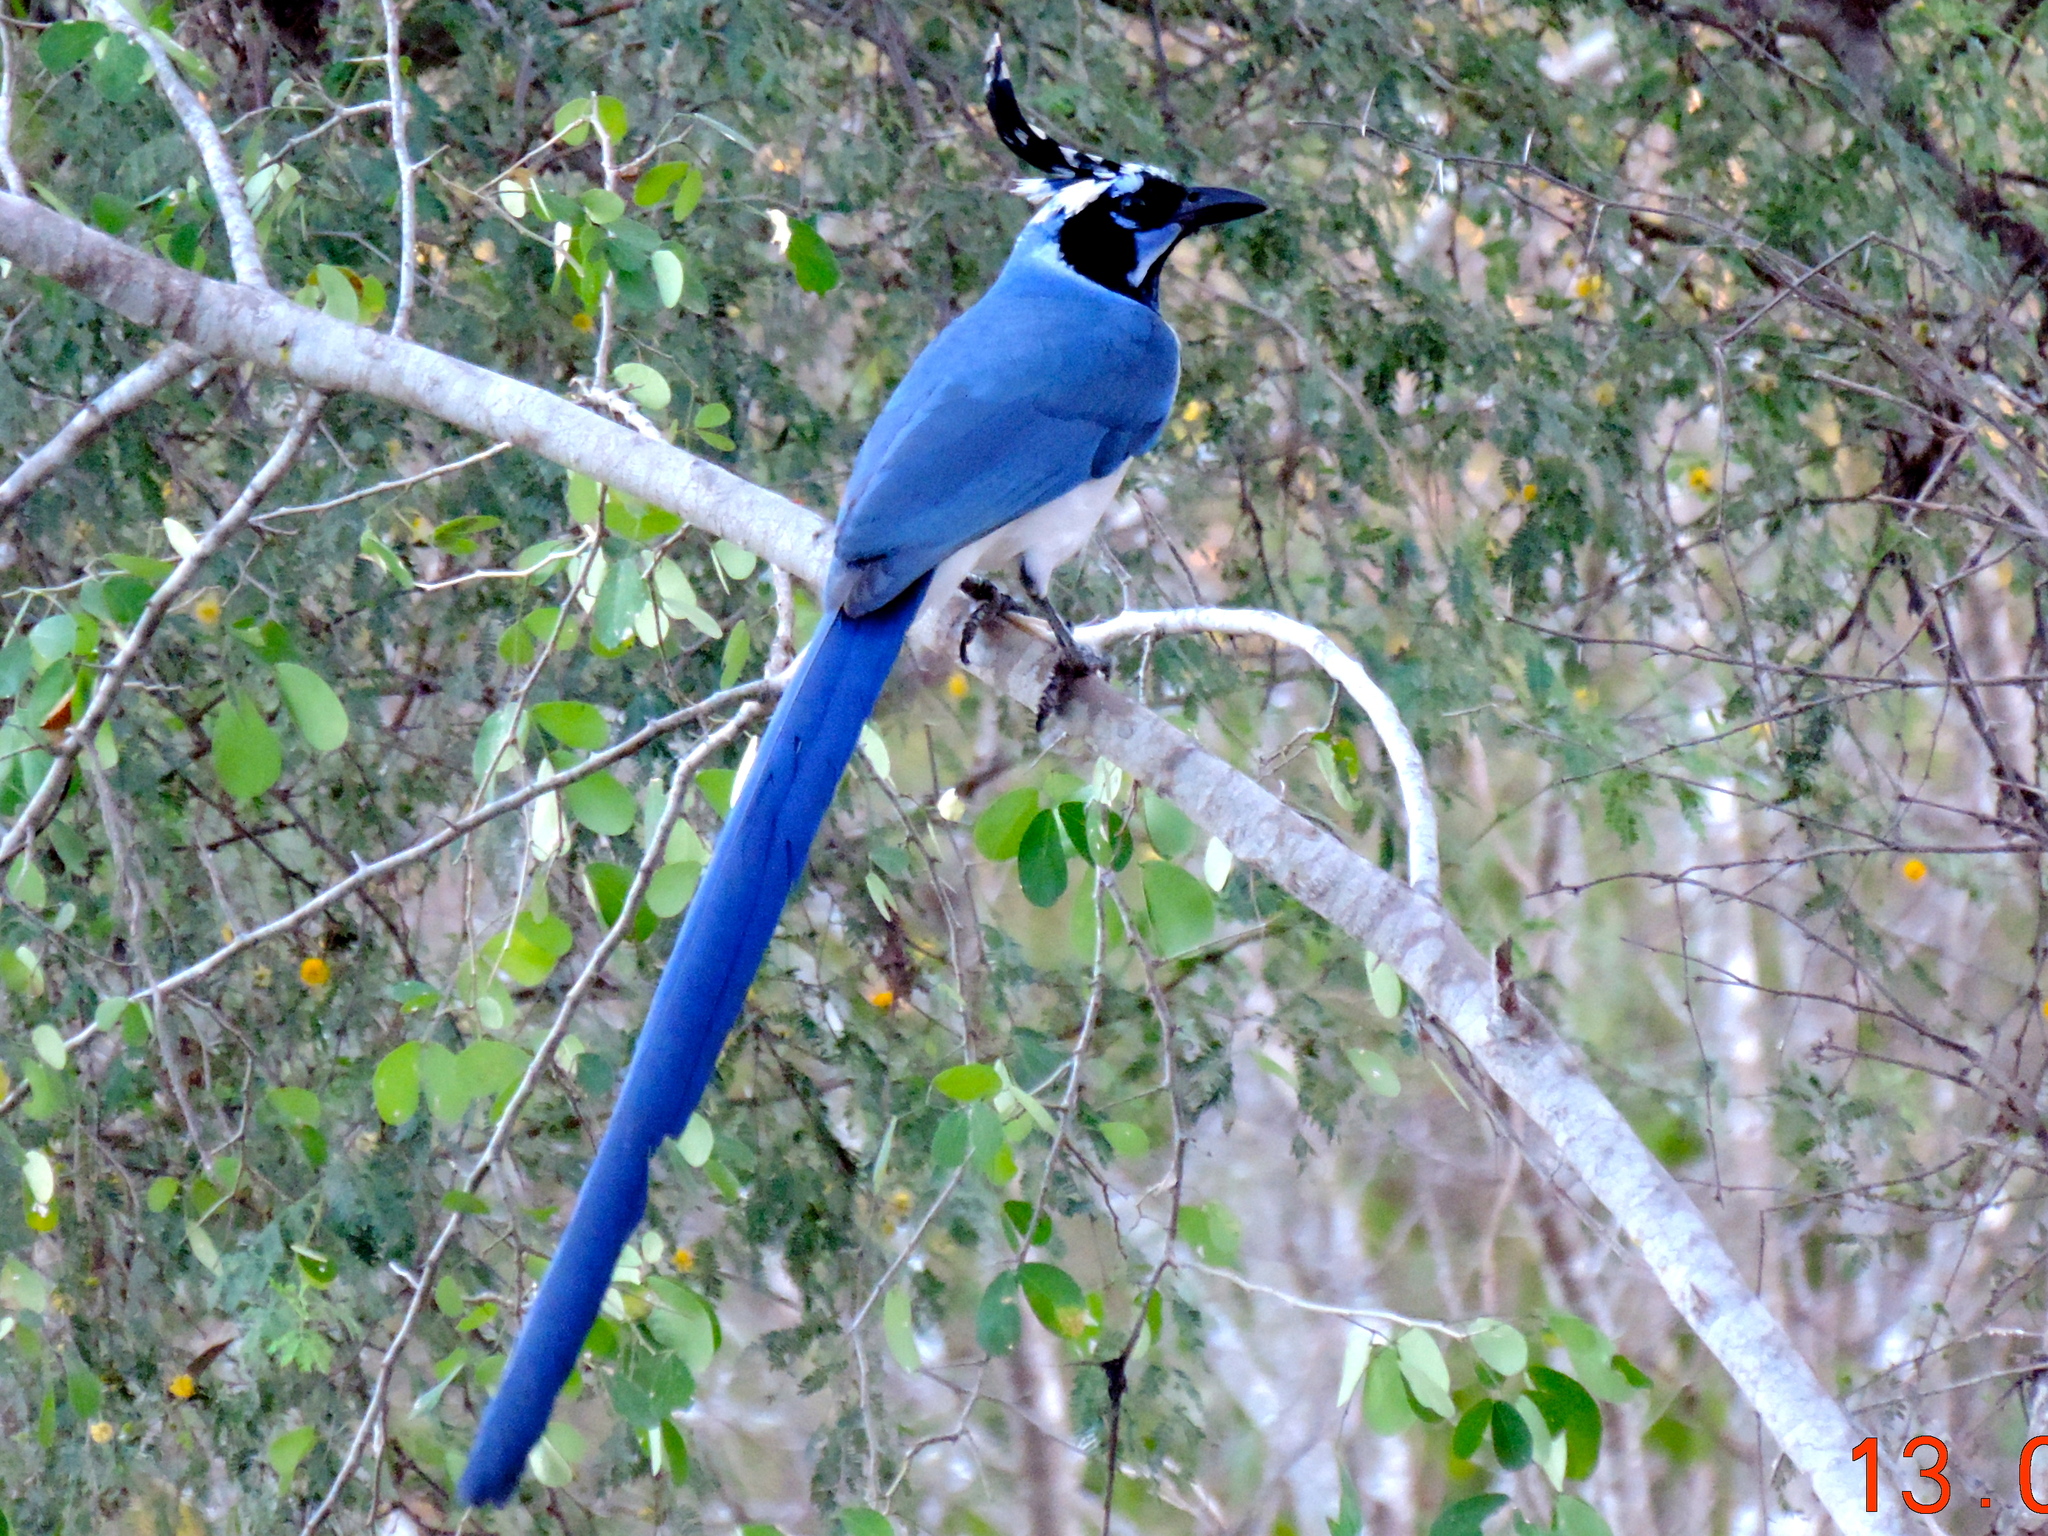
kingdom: Animalia
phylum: Chordata
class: Aves
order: Passeriformes
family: Corvidae
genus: Calocitta
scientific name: Calocitta colliei
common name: Black-throated magpie-jay
